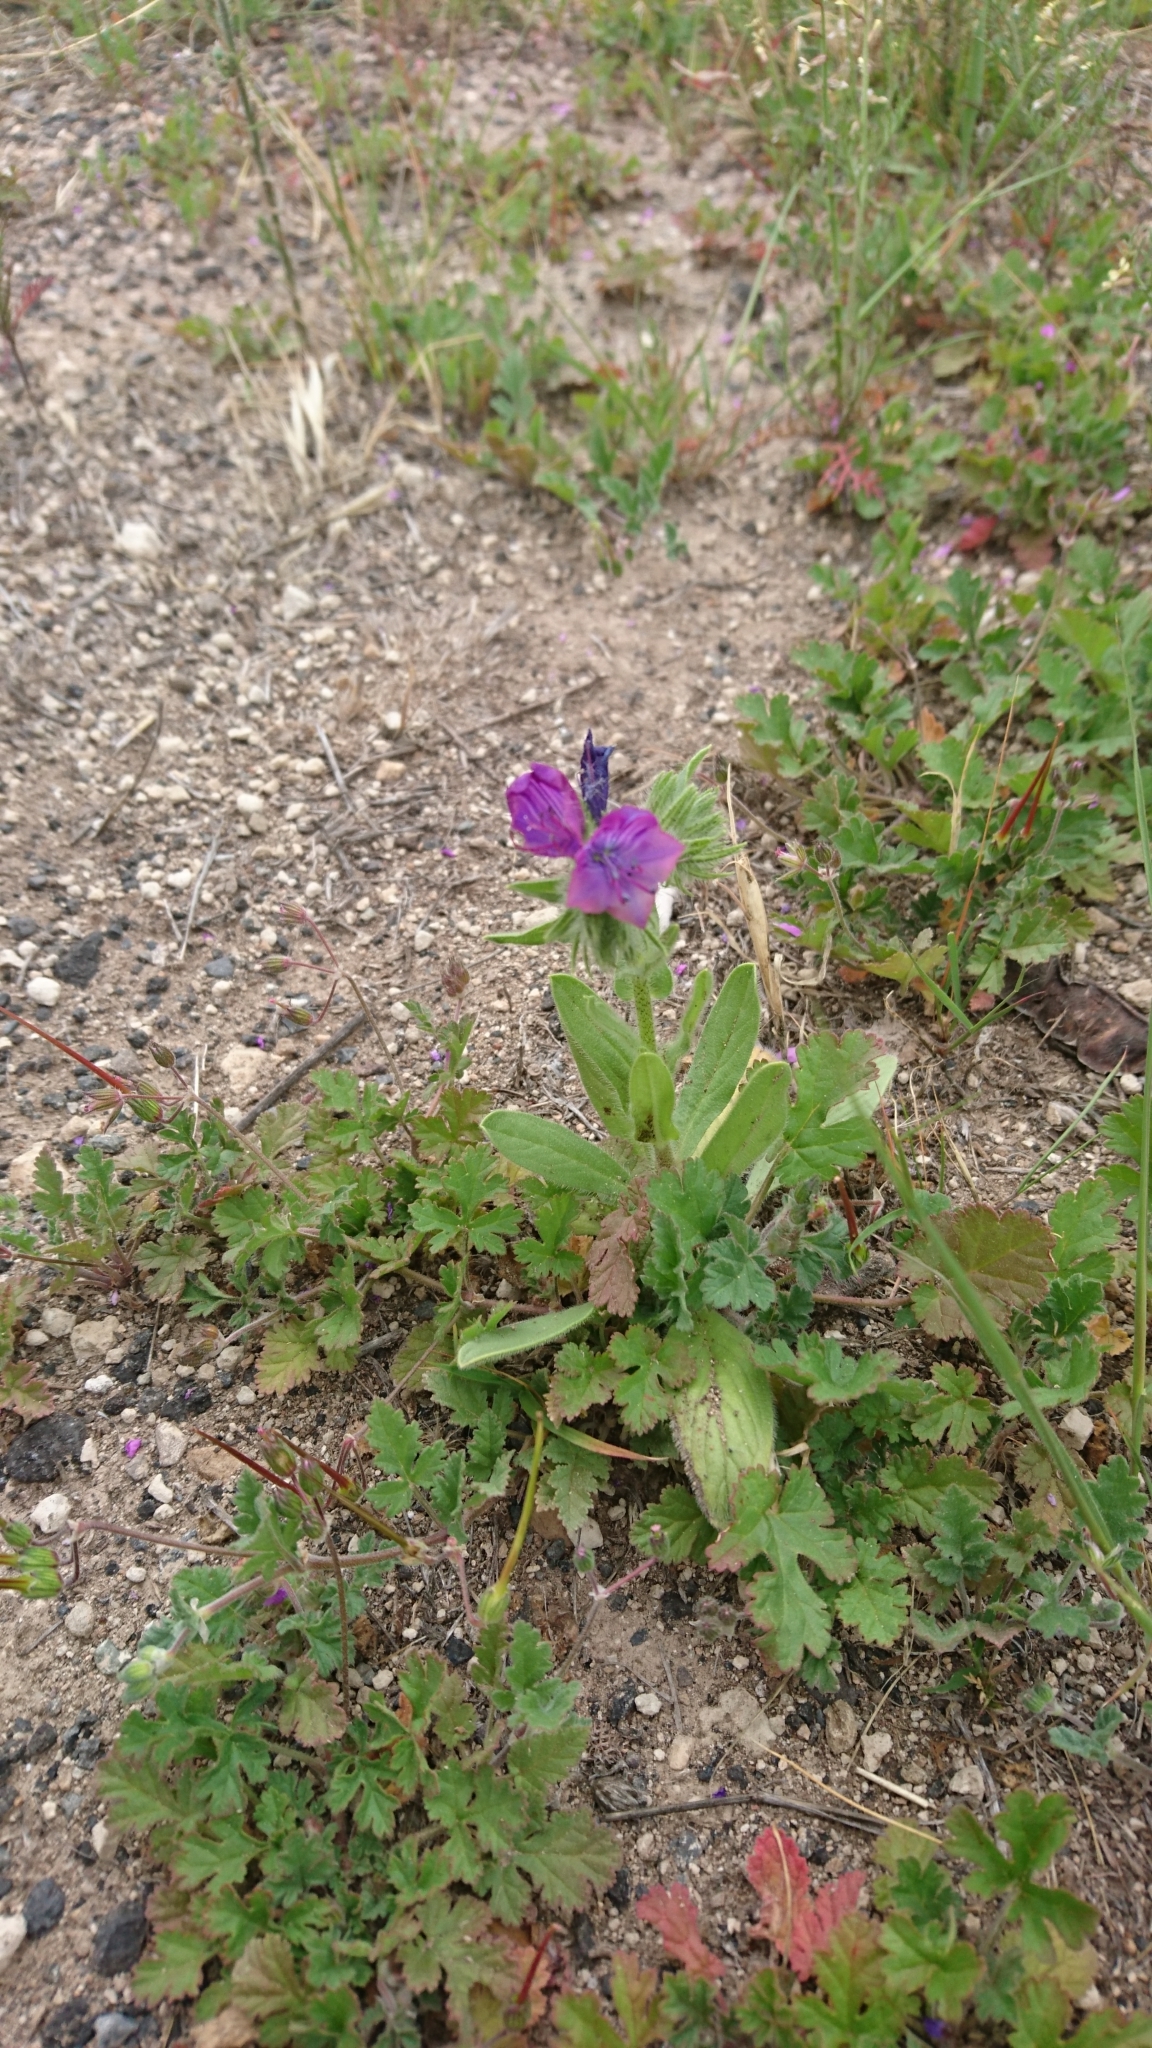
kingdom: Plantae
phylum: Tracheophyta
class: Magnoliopsida
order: Boraginales
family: Boraginaceae
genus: Echium
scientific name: Echium plantagineum
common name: Purple viper's-bugloss
